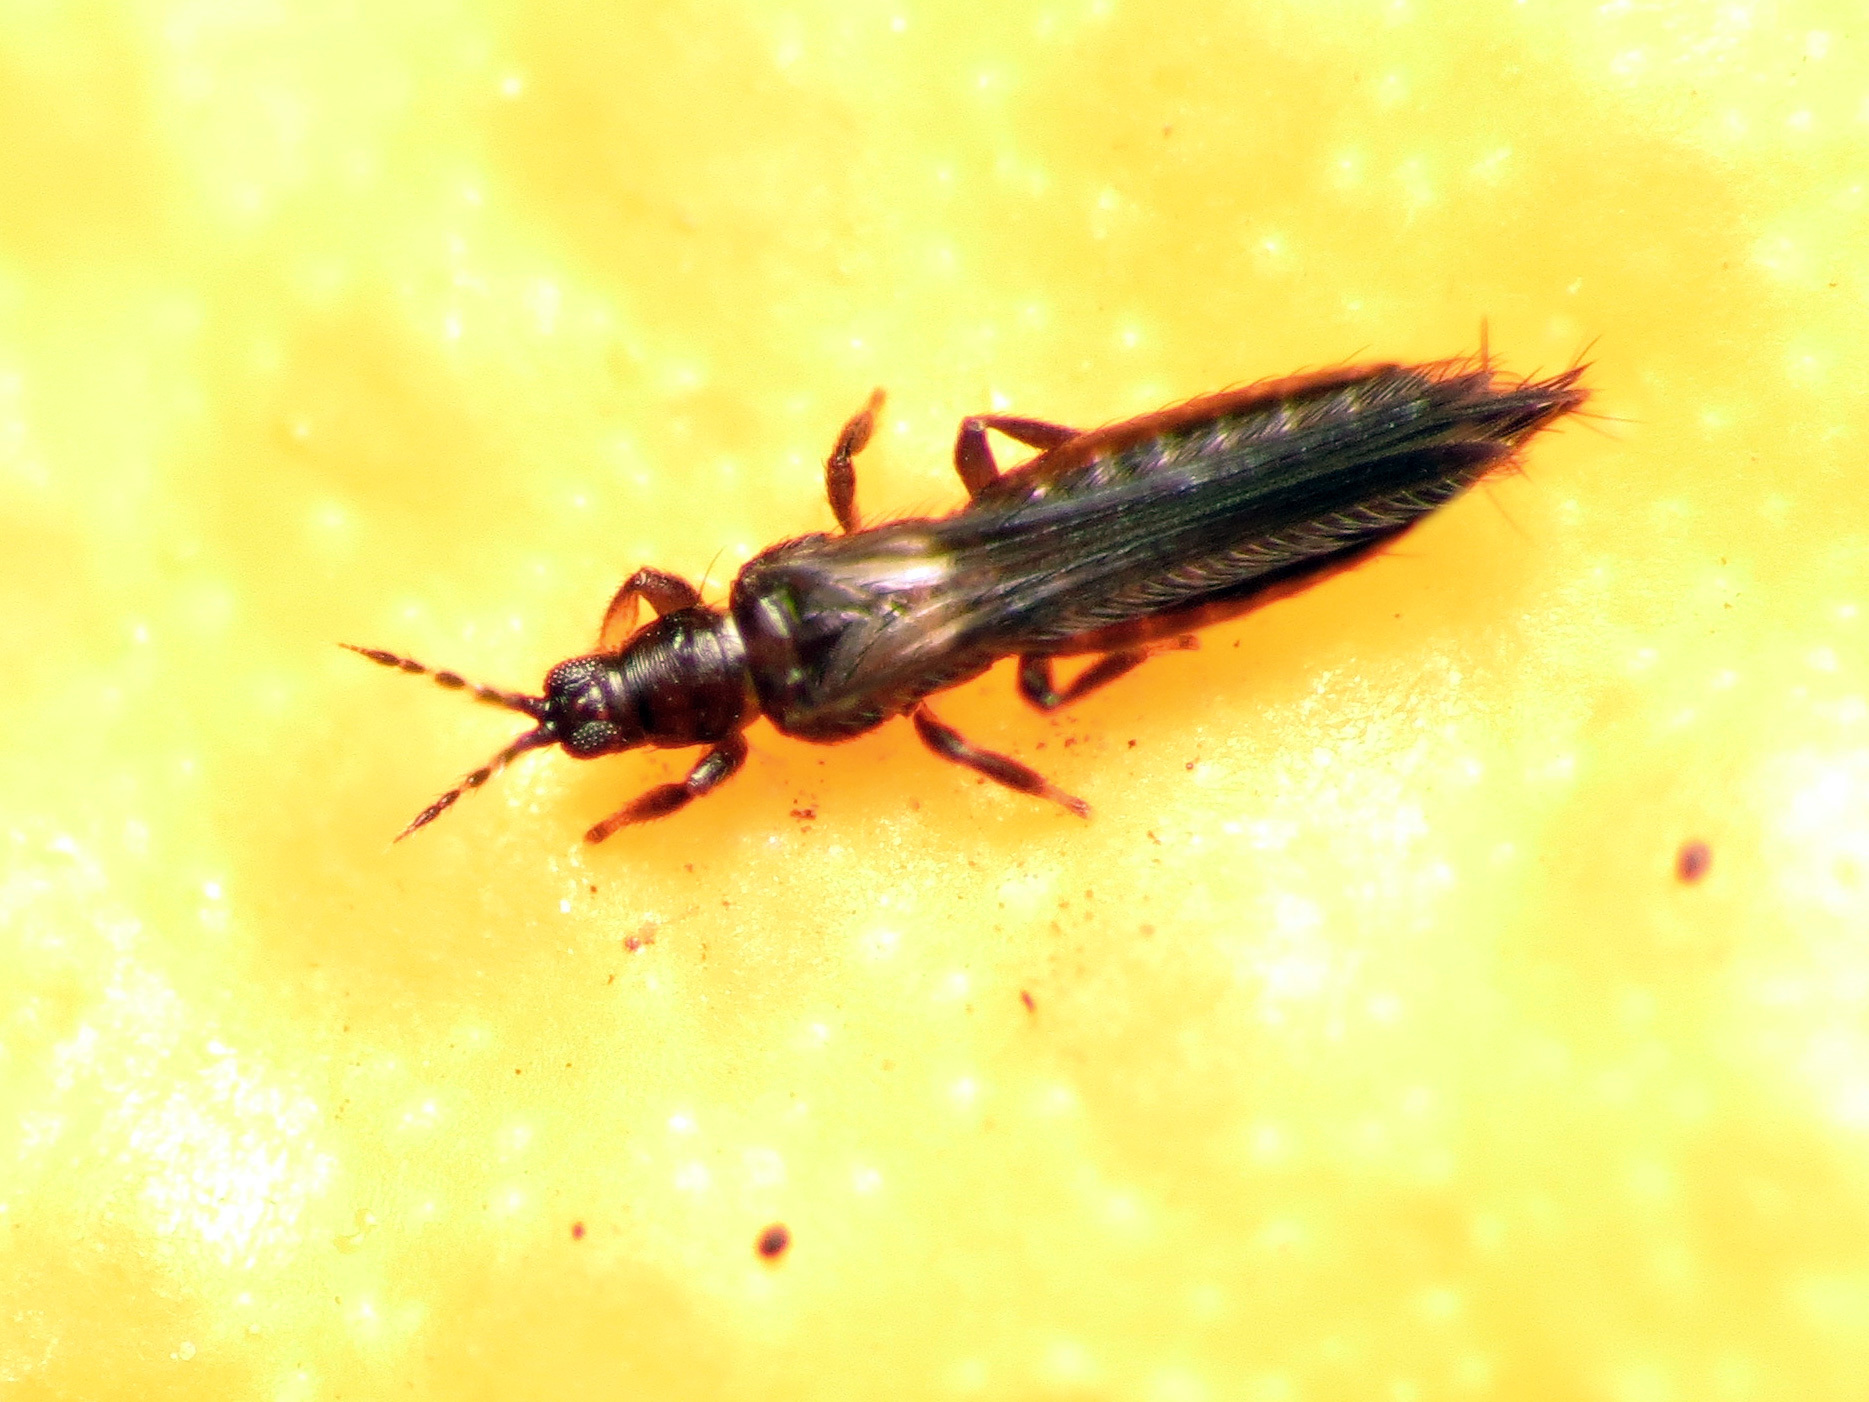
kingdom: Animalia
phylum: Arthropoda
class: Insecta
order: Thysanoptera
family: Thripidae
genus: Pezothrips
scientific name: Pezothrips kellyanus
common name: Thrip
